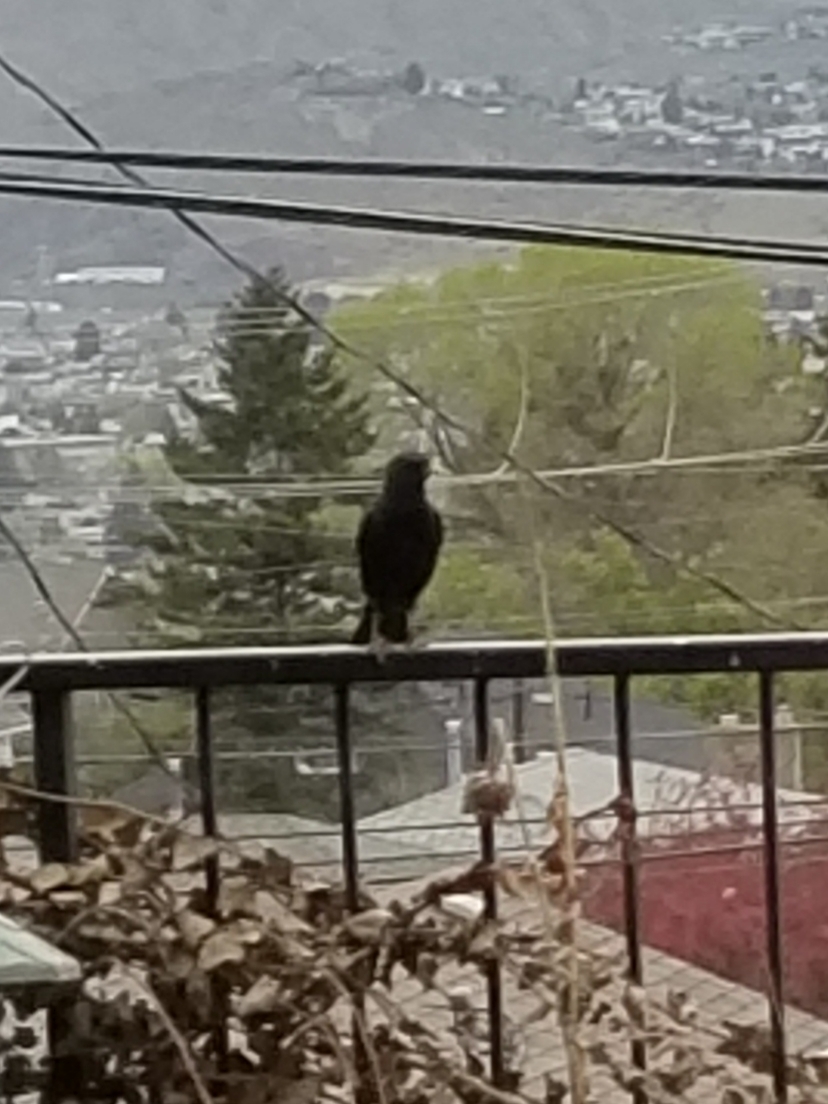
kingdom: Animalia
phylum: Chordata
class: Aves
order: Passeriformes
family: Sturnidae
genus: Sturnus
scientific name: Sturnus vulgaris
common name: Common starling
